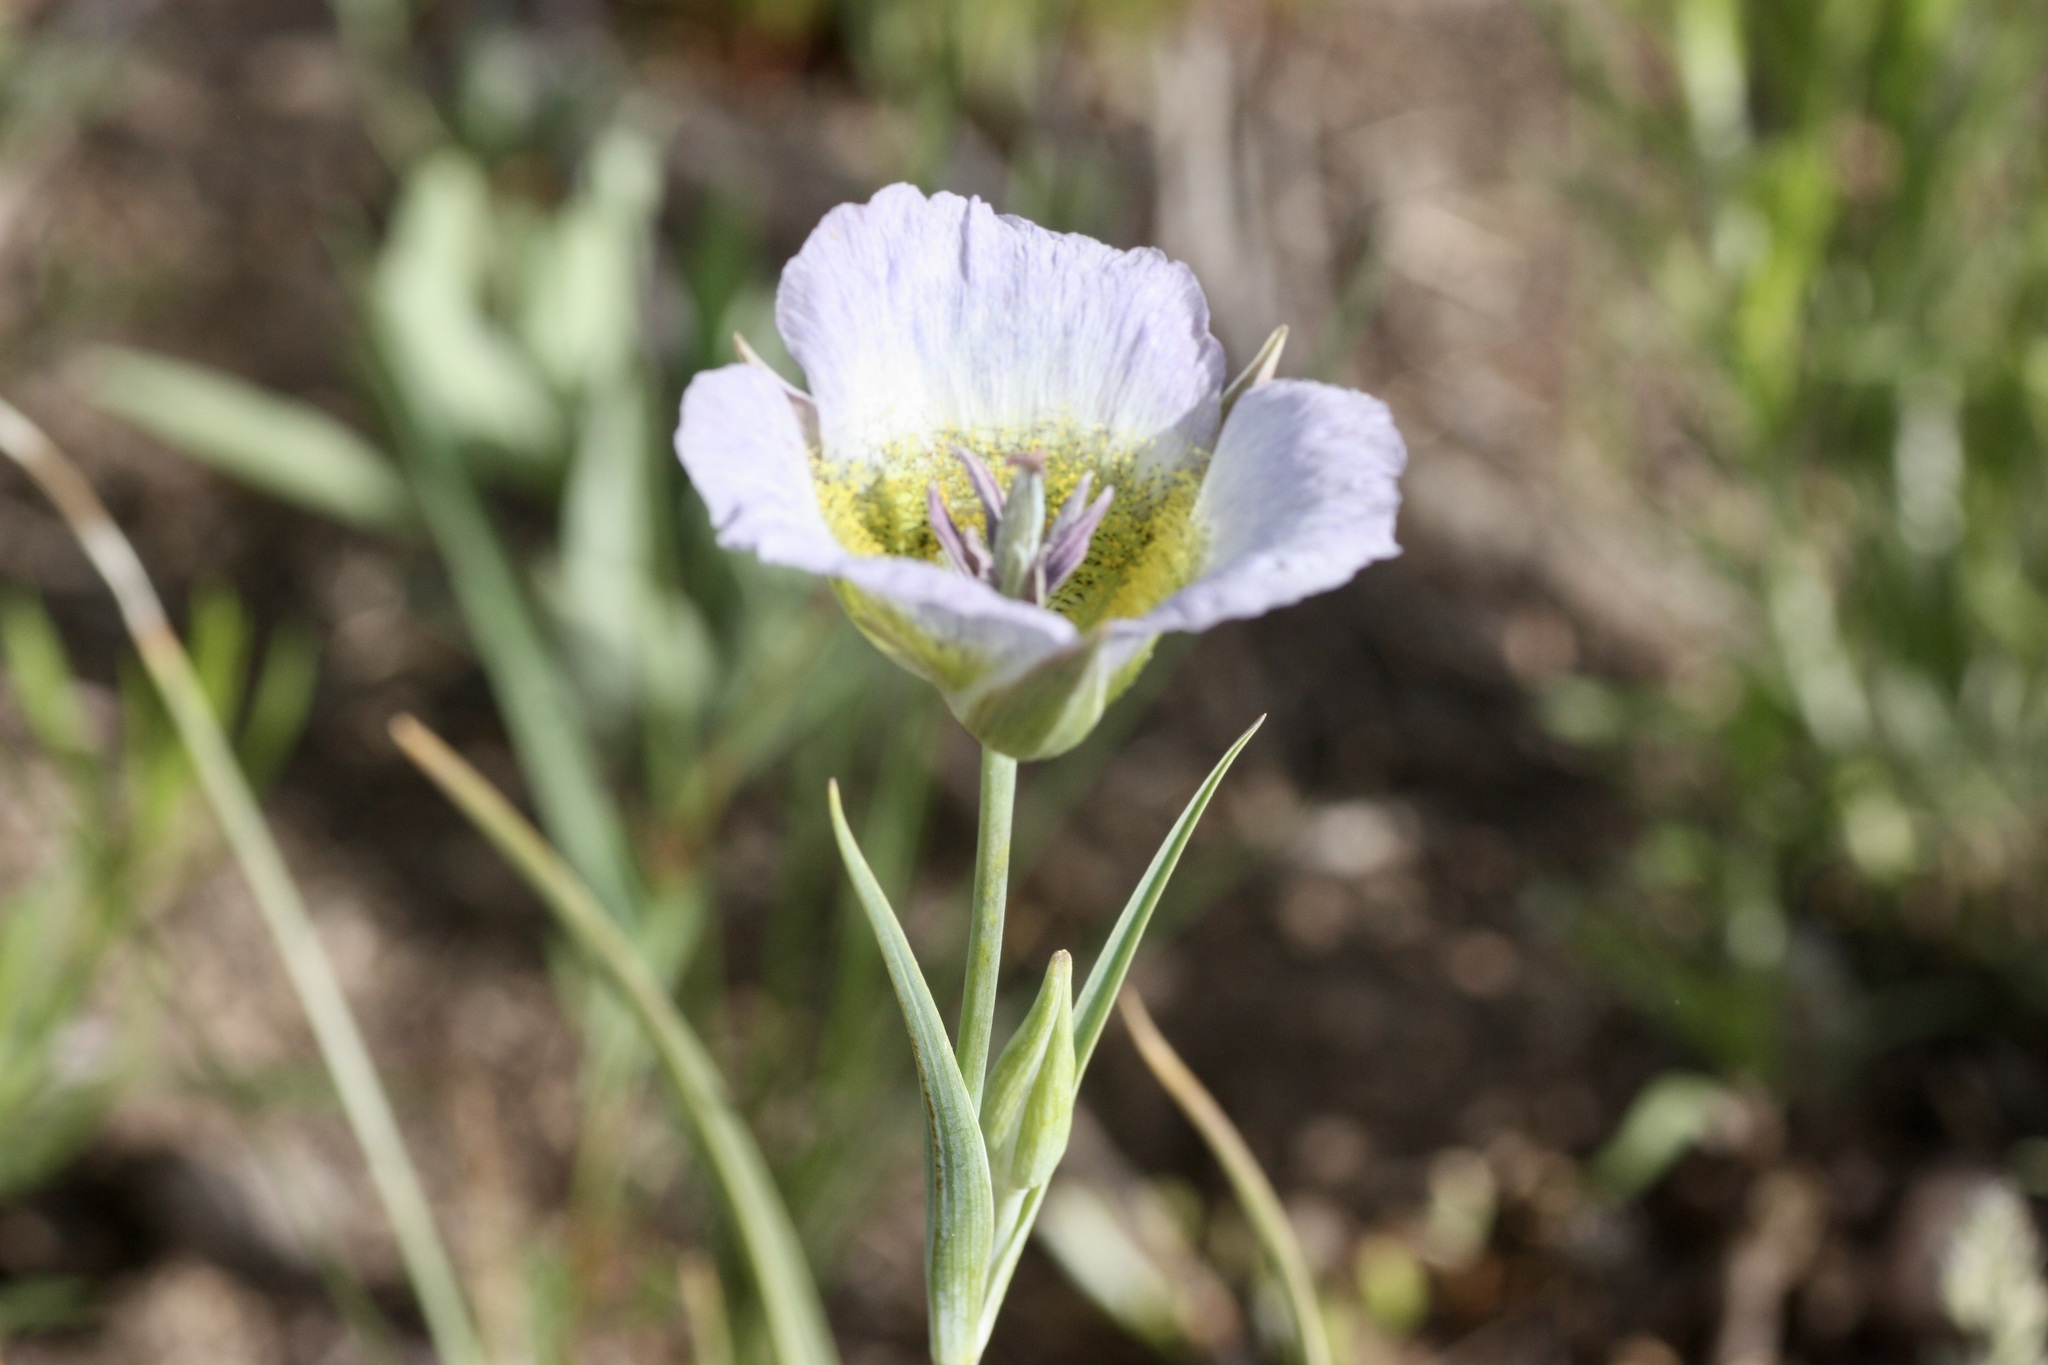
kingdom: Plantae
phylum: Tracheophyta
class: Liliopsida
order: Liliales
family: Liliaceae
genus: Calochortus
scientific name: Calochortus gunnisonii
